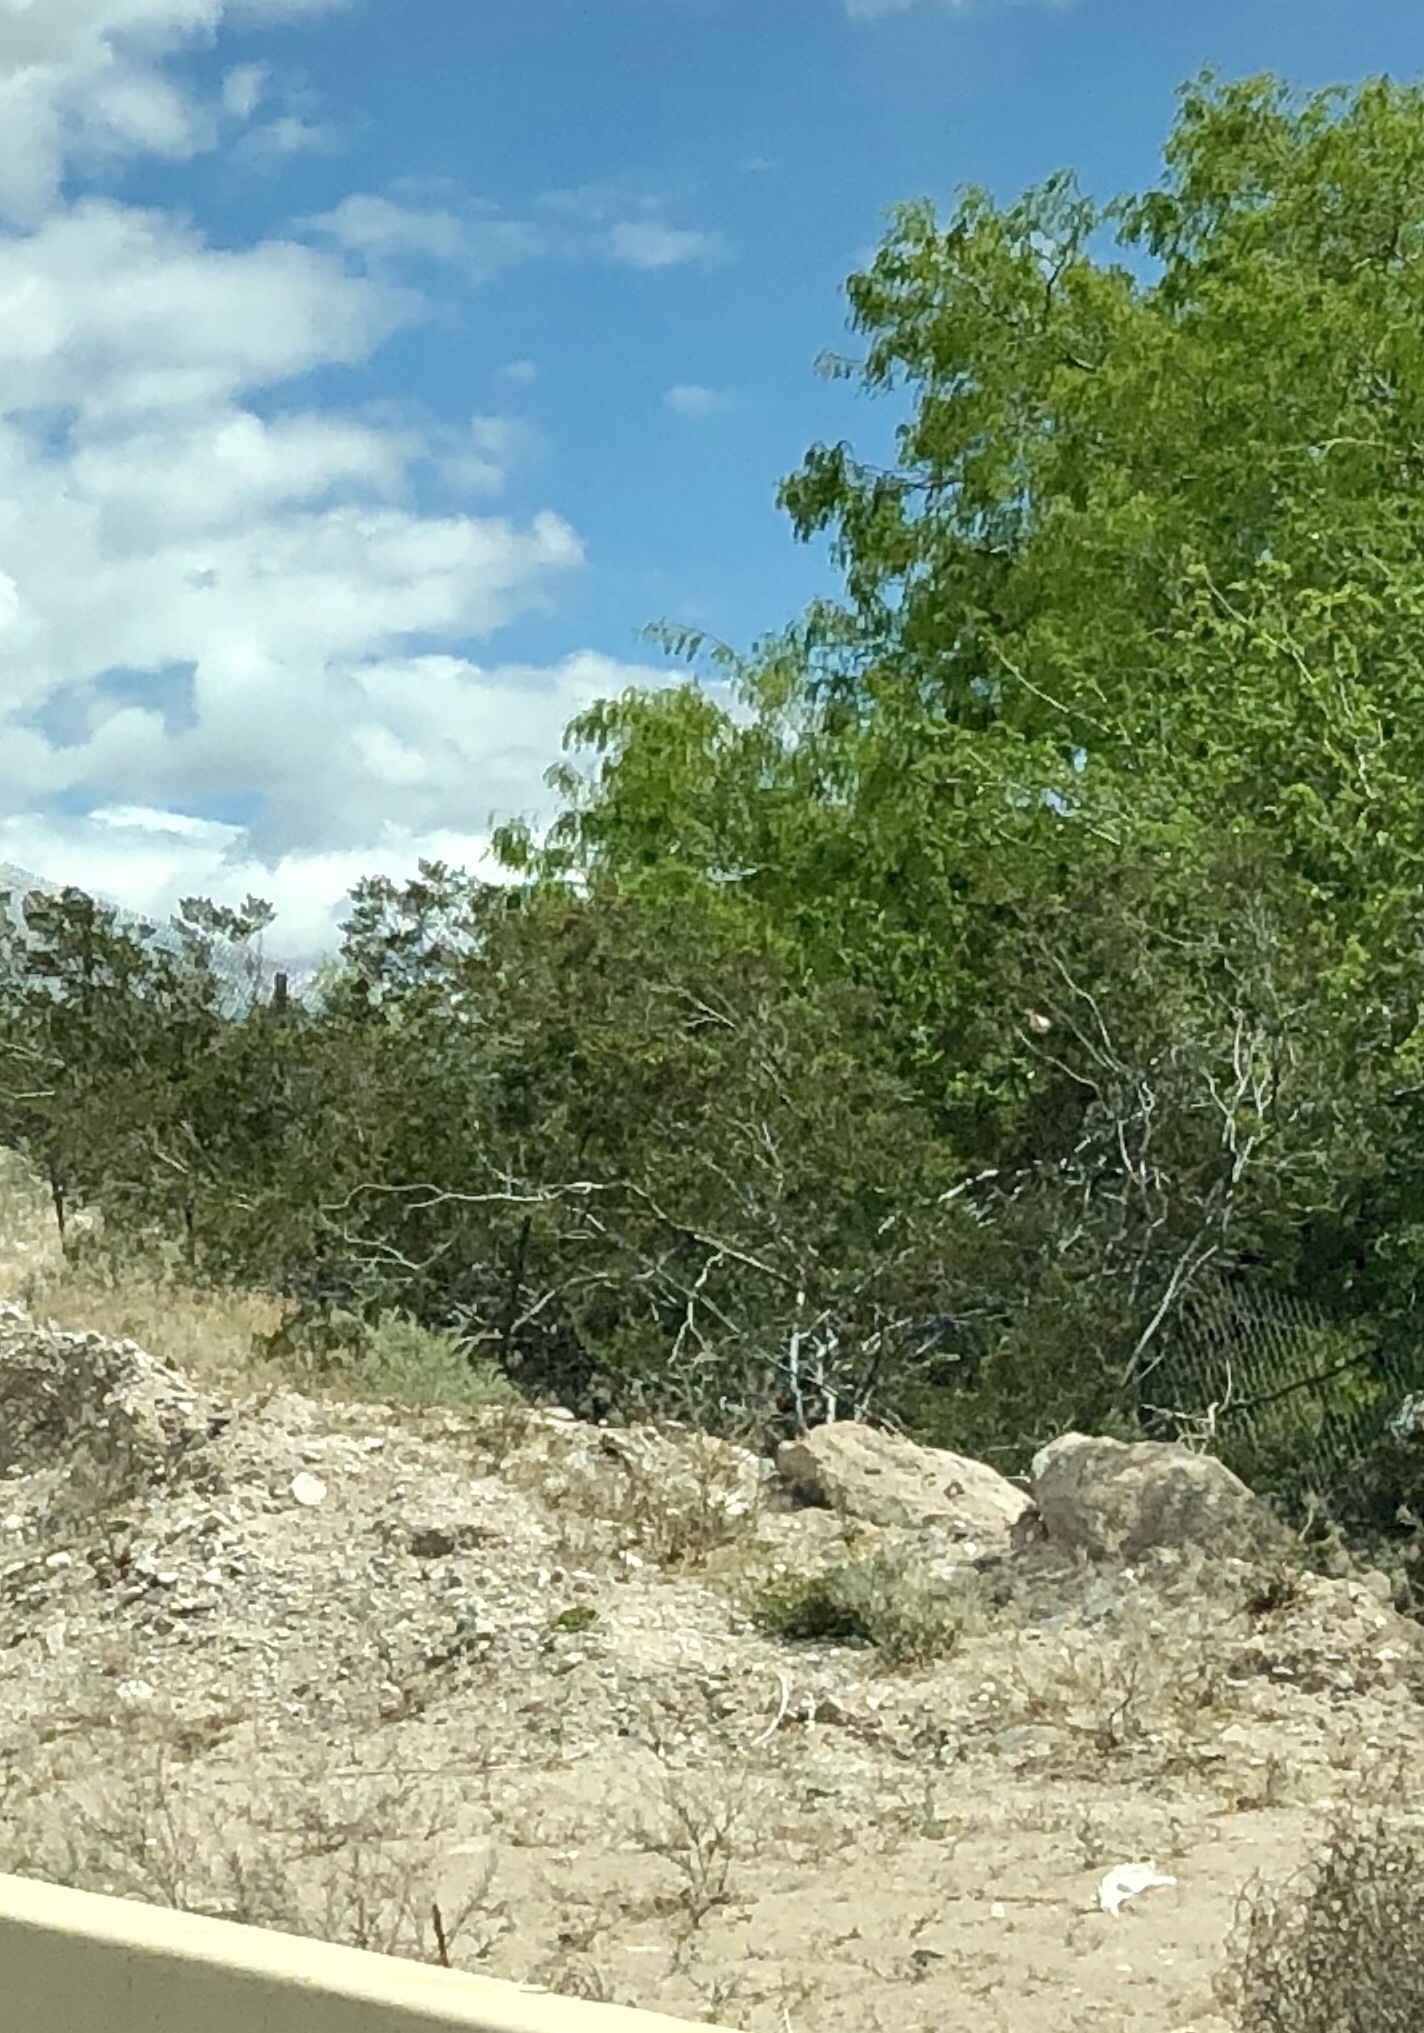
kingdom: Plantae
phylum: Tracheophyta
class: Magnoliopsida
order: Zygophyllales
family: Zygophyllaceae
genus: Larrea
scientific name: Larrea tridentata
